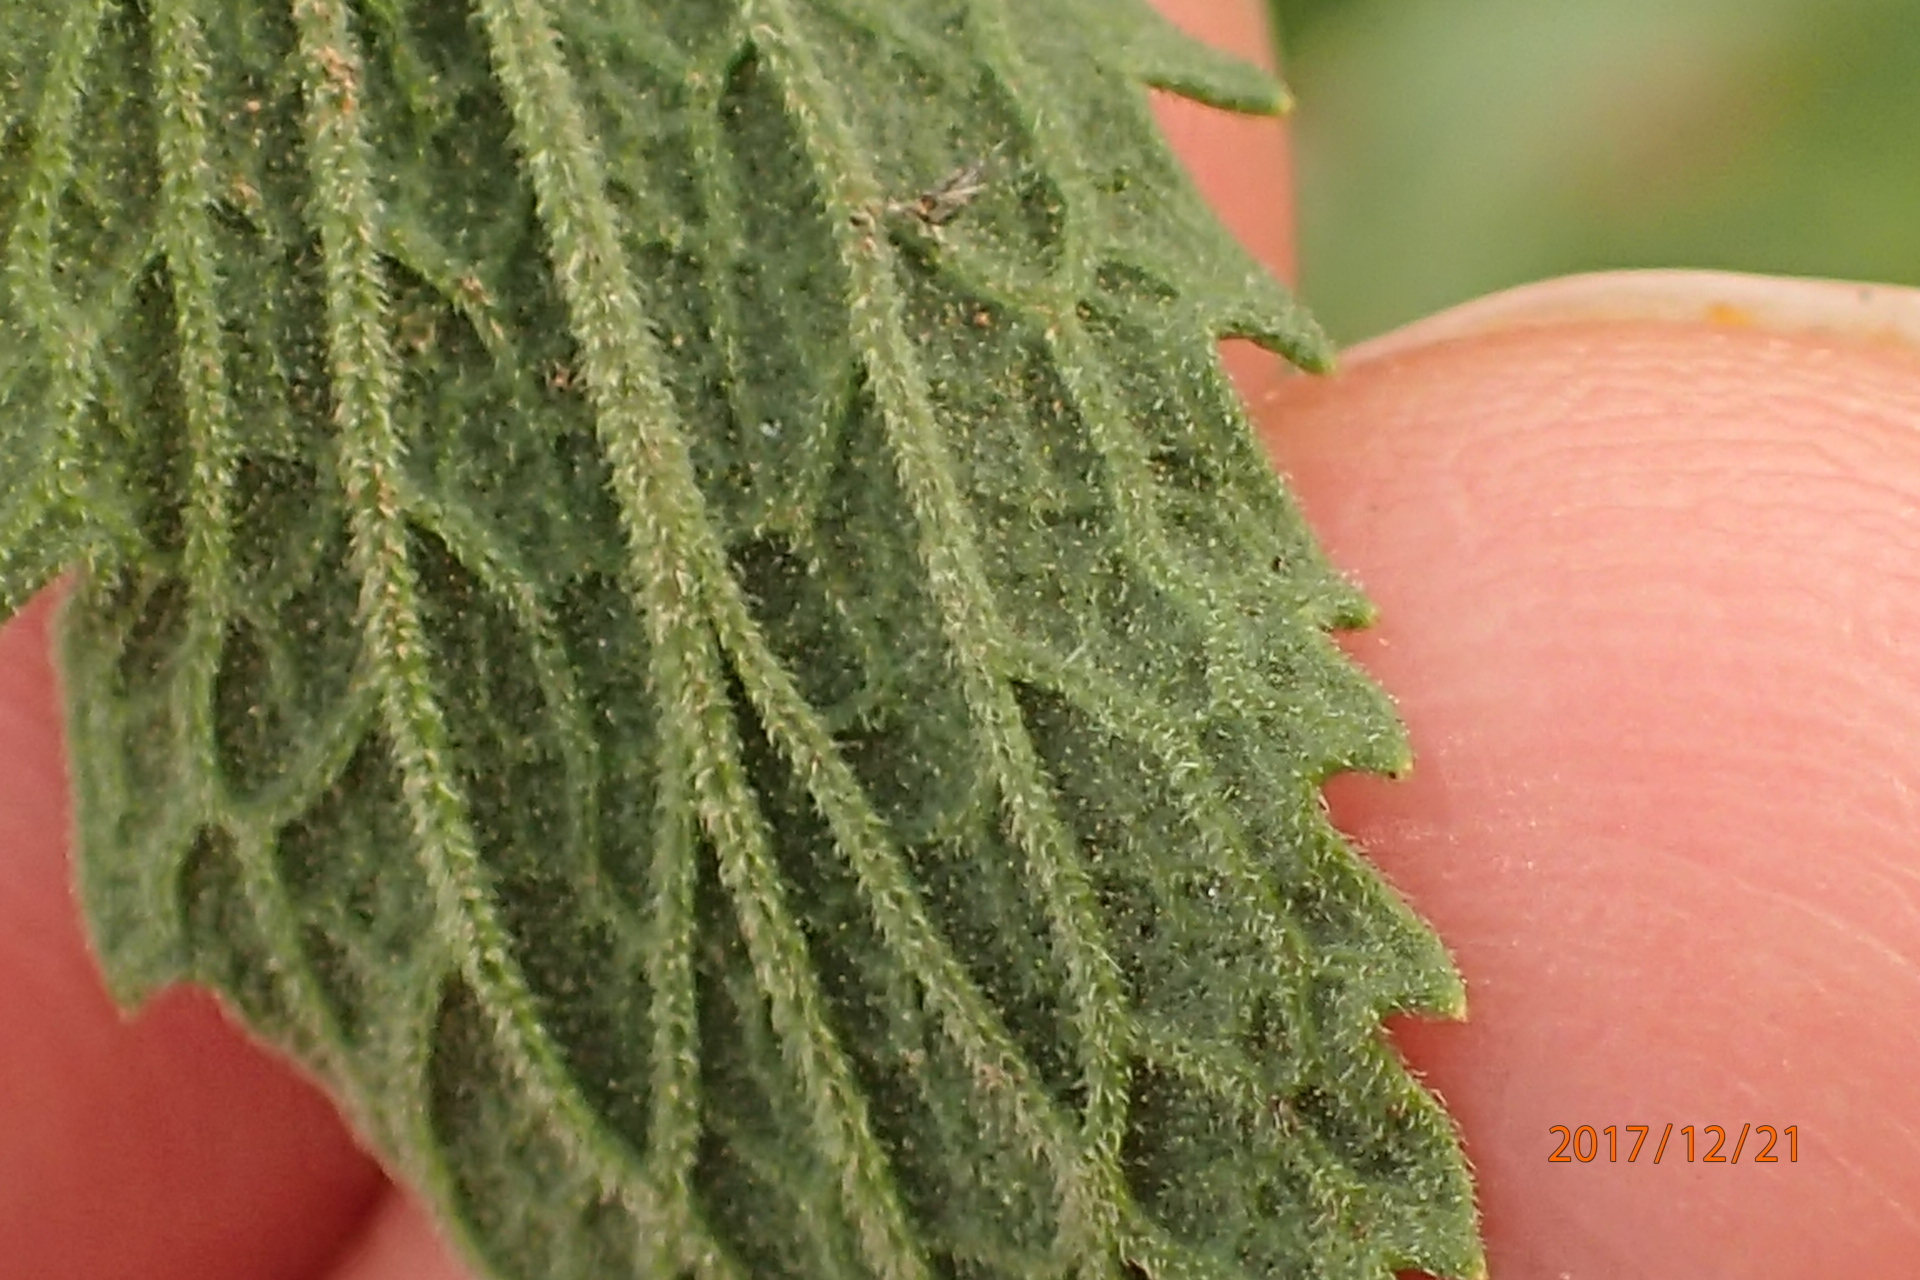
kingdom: Plantae
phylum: Tracheophyta
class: Magnoliopsida
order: Asterales
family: Asteraceae
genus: Nidorella
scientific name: Nidorella auriculata
